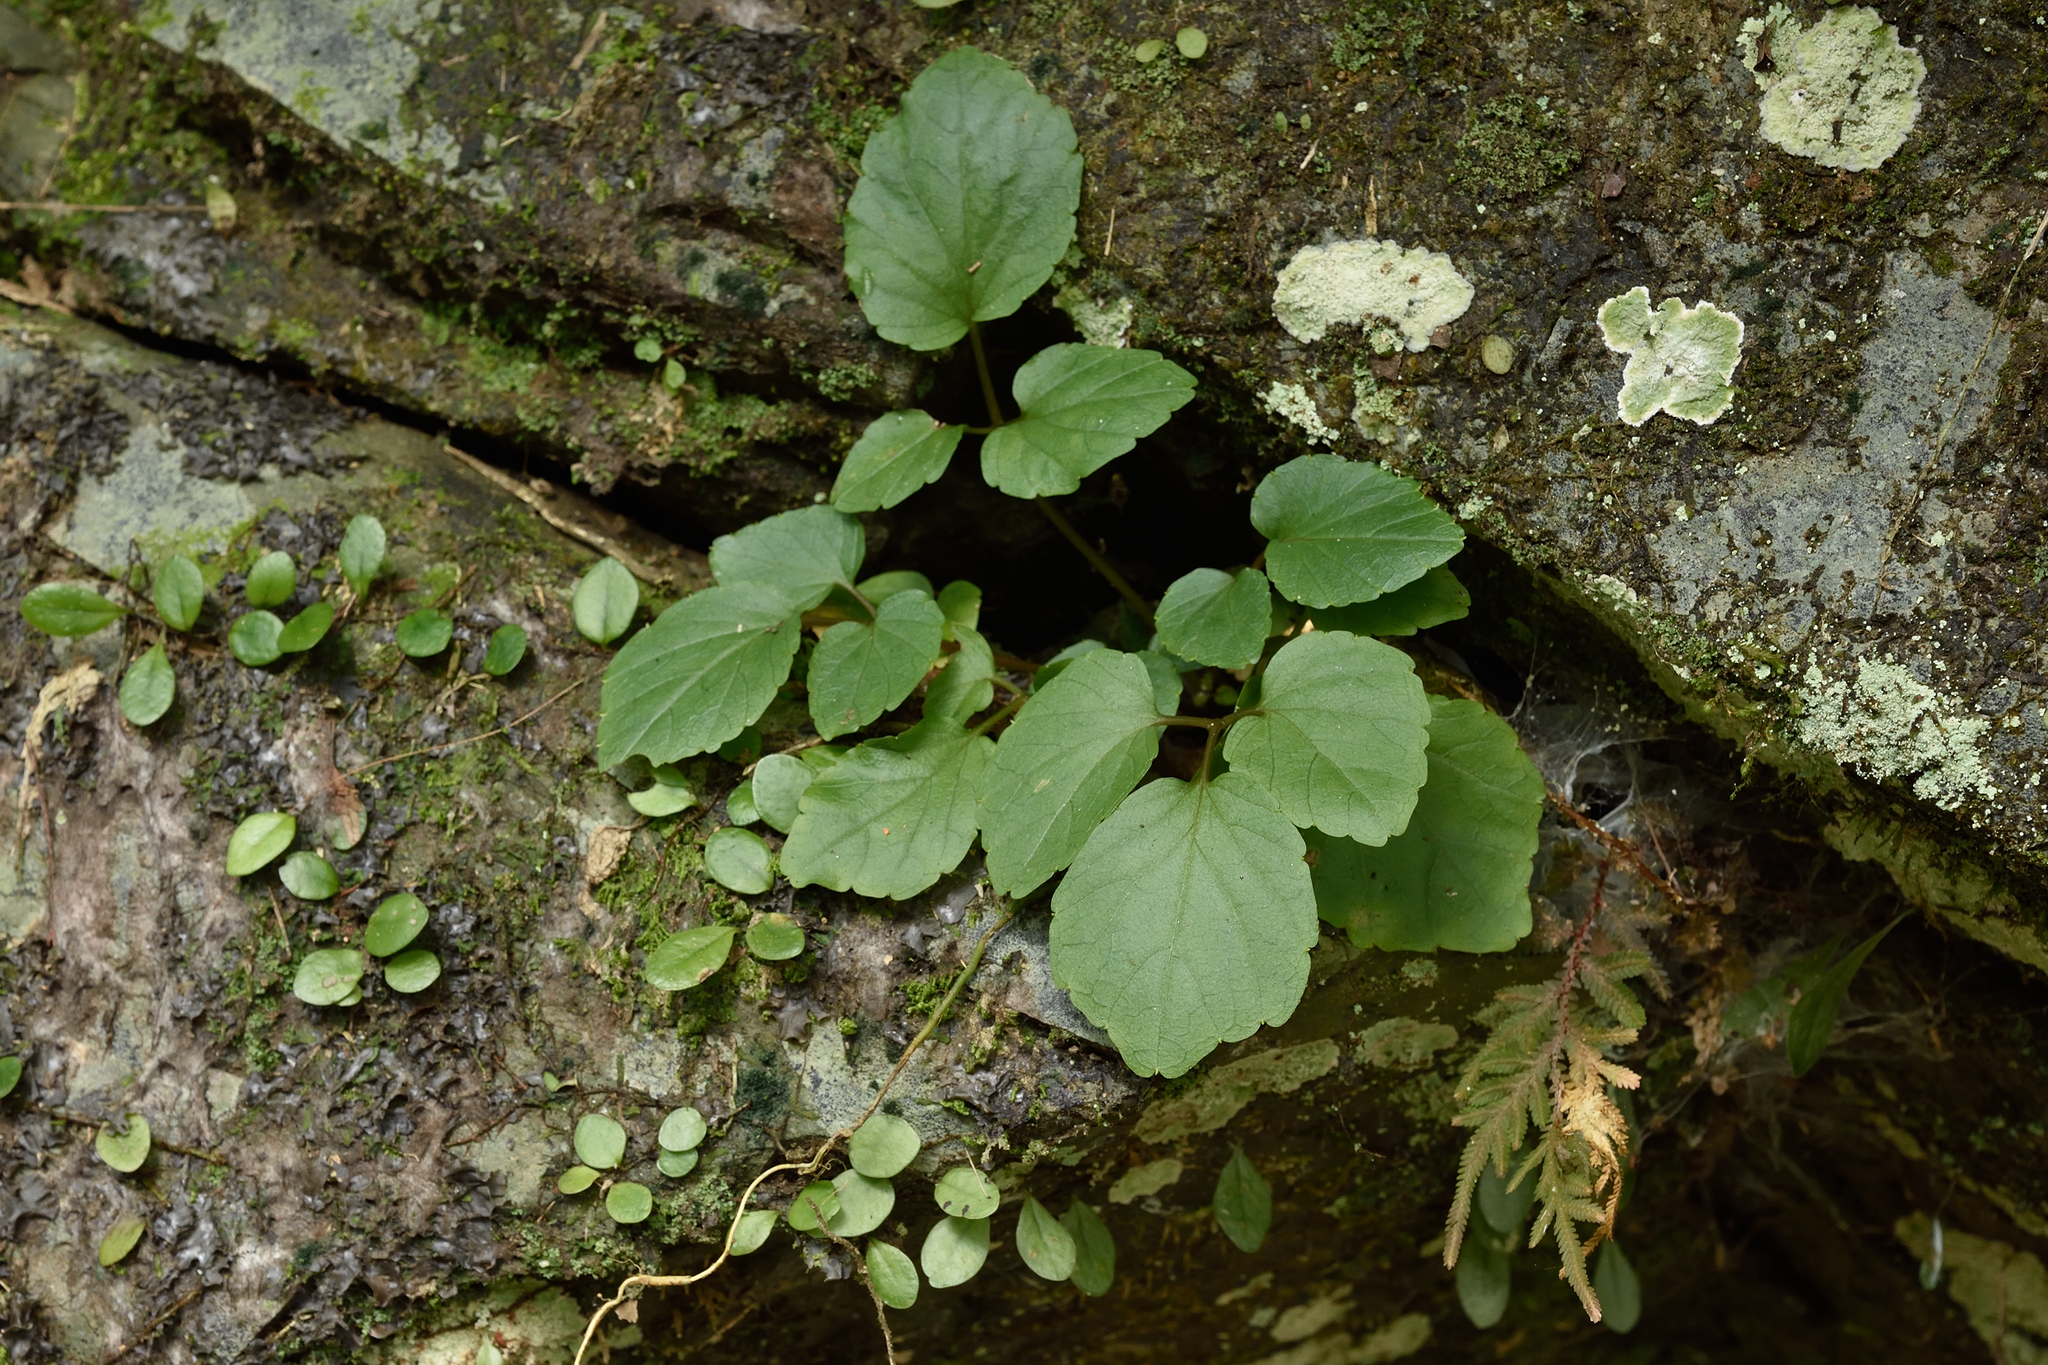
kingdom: Plantae
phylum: Tracheophyta
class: Magnoliopsida
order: Brassicales
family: Brassicaceae
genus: Hilliella
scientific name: Hilliella rivulorum
